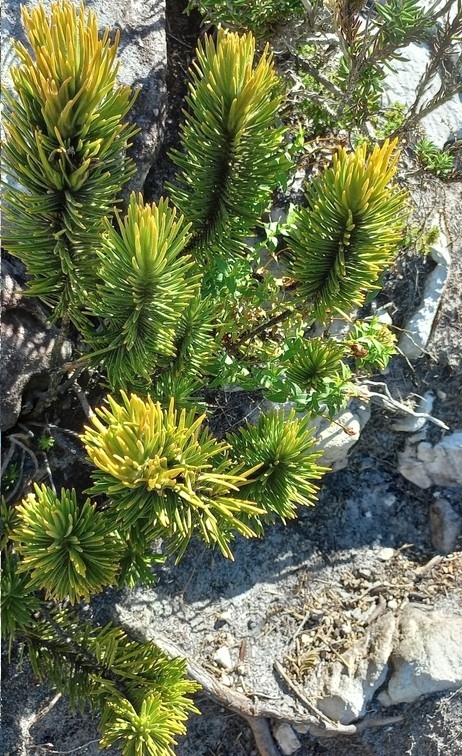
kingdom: Plantae
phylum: Tracheophyta
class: Magnoliopsida
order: Lamiales
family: Stilbaceae
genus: Retzia
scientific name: Retzia capensis
